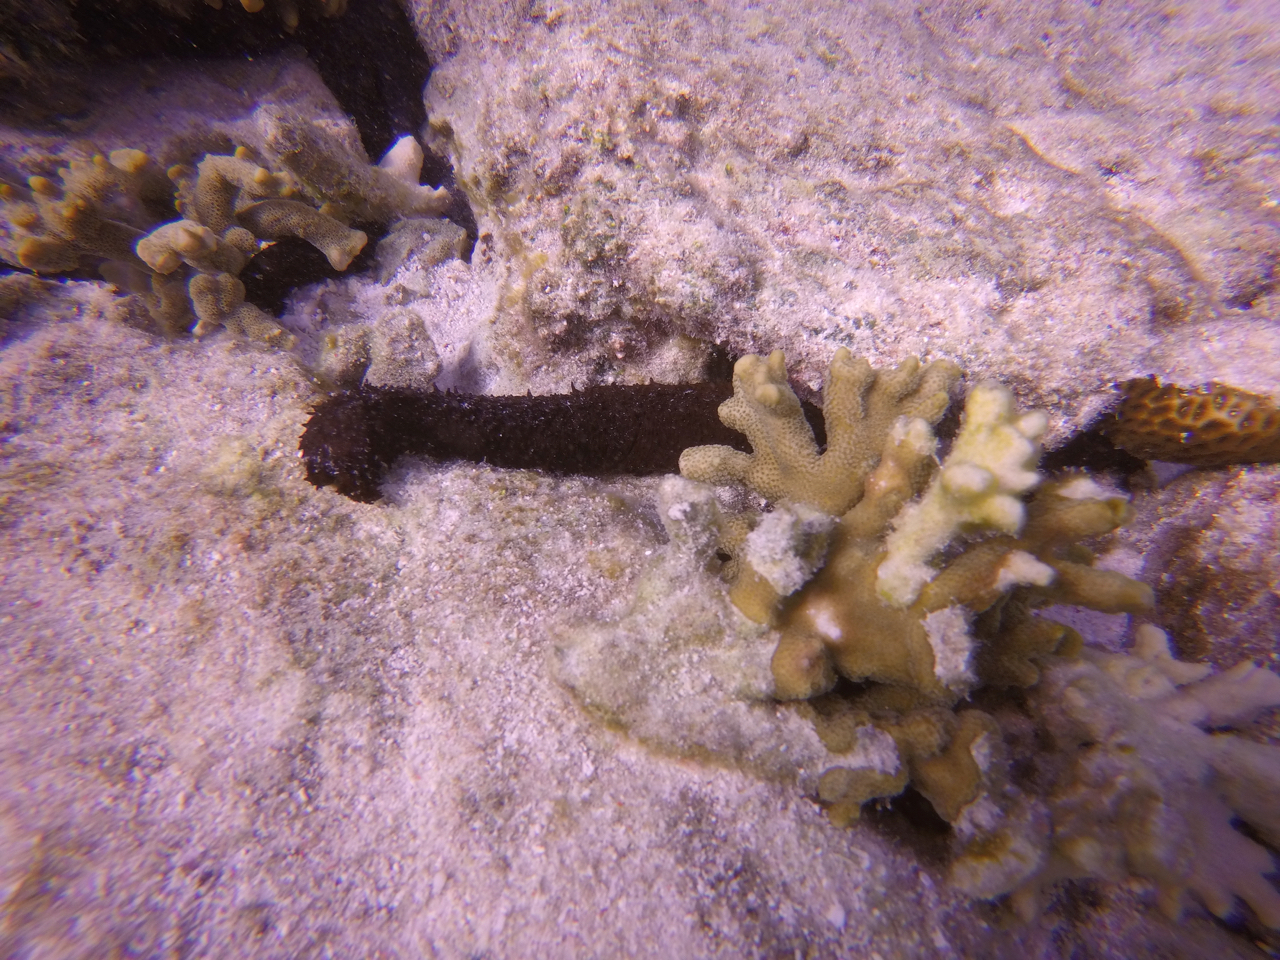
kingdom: Animalia
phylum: Echinodermata
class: Holothuroidea
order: Holothuriida
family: Holothuriidae
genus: Holothuria
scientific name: Holothuria leucospilota
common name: White thread fish
